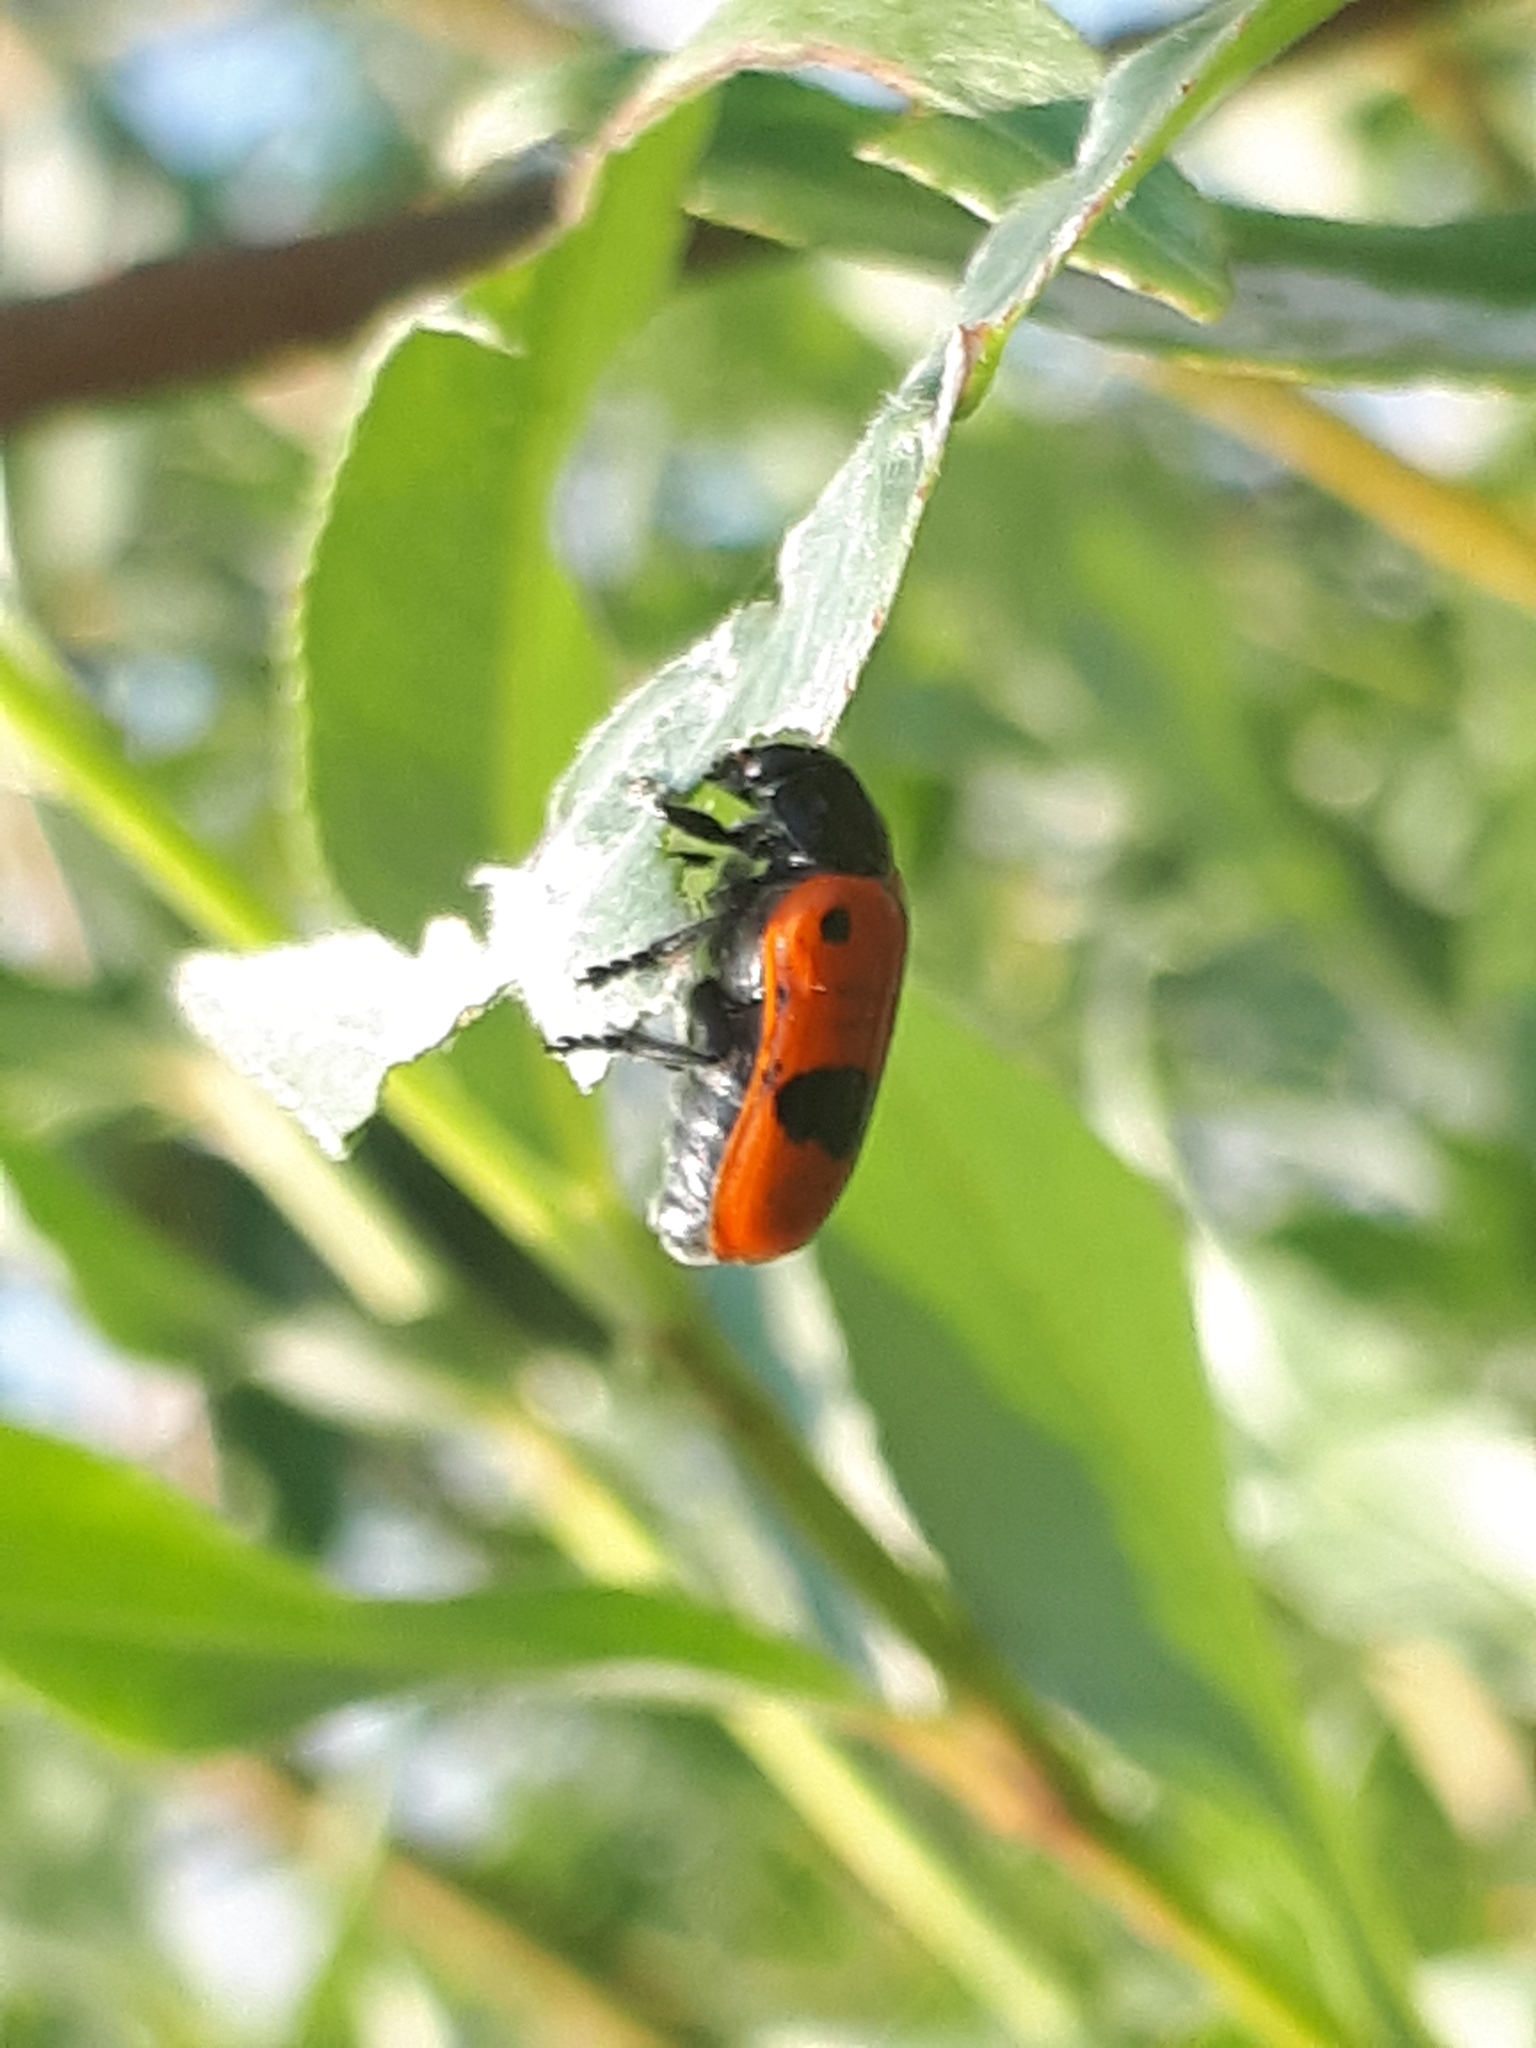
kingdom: Animalia
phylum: Arthropoda
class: Insecta
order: Coleoptera
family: Chrysomelidae
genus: Clytra
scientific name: Clytra laeviuscula
